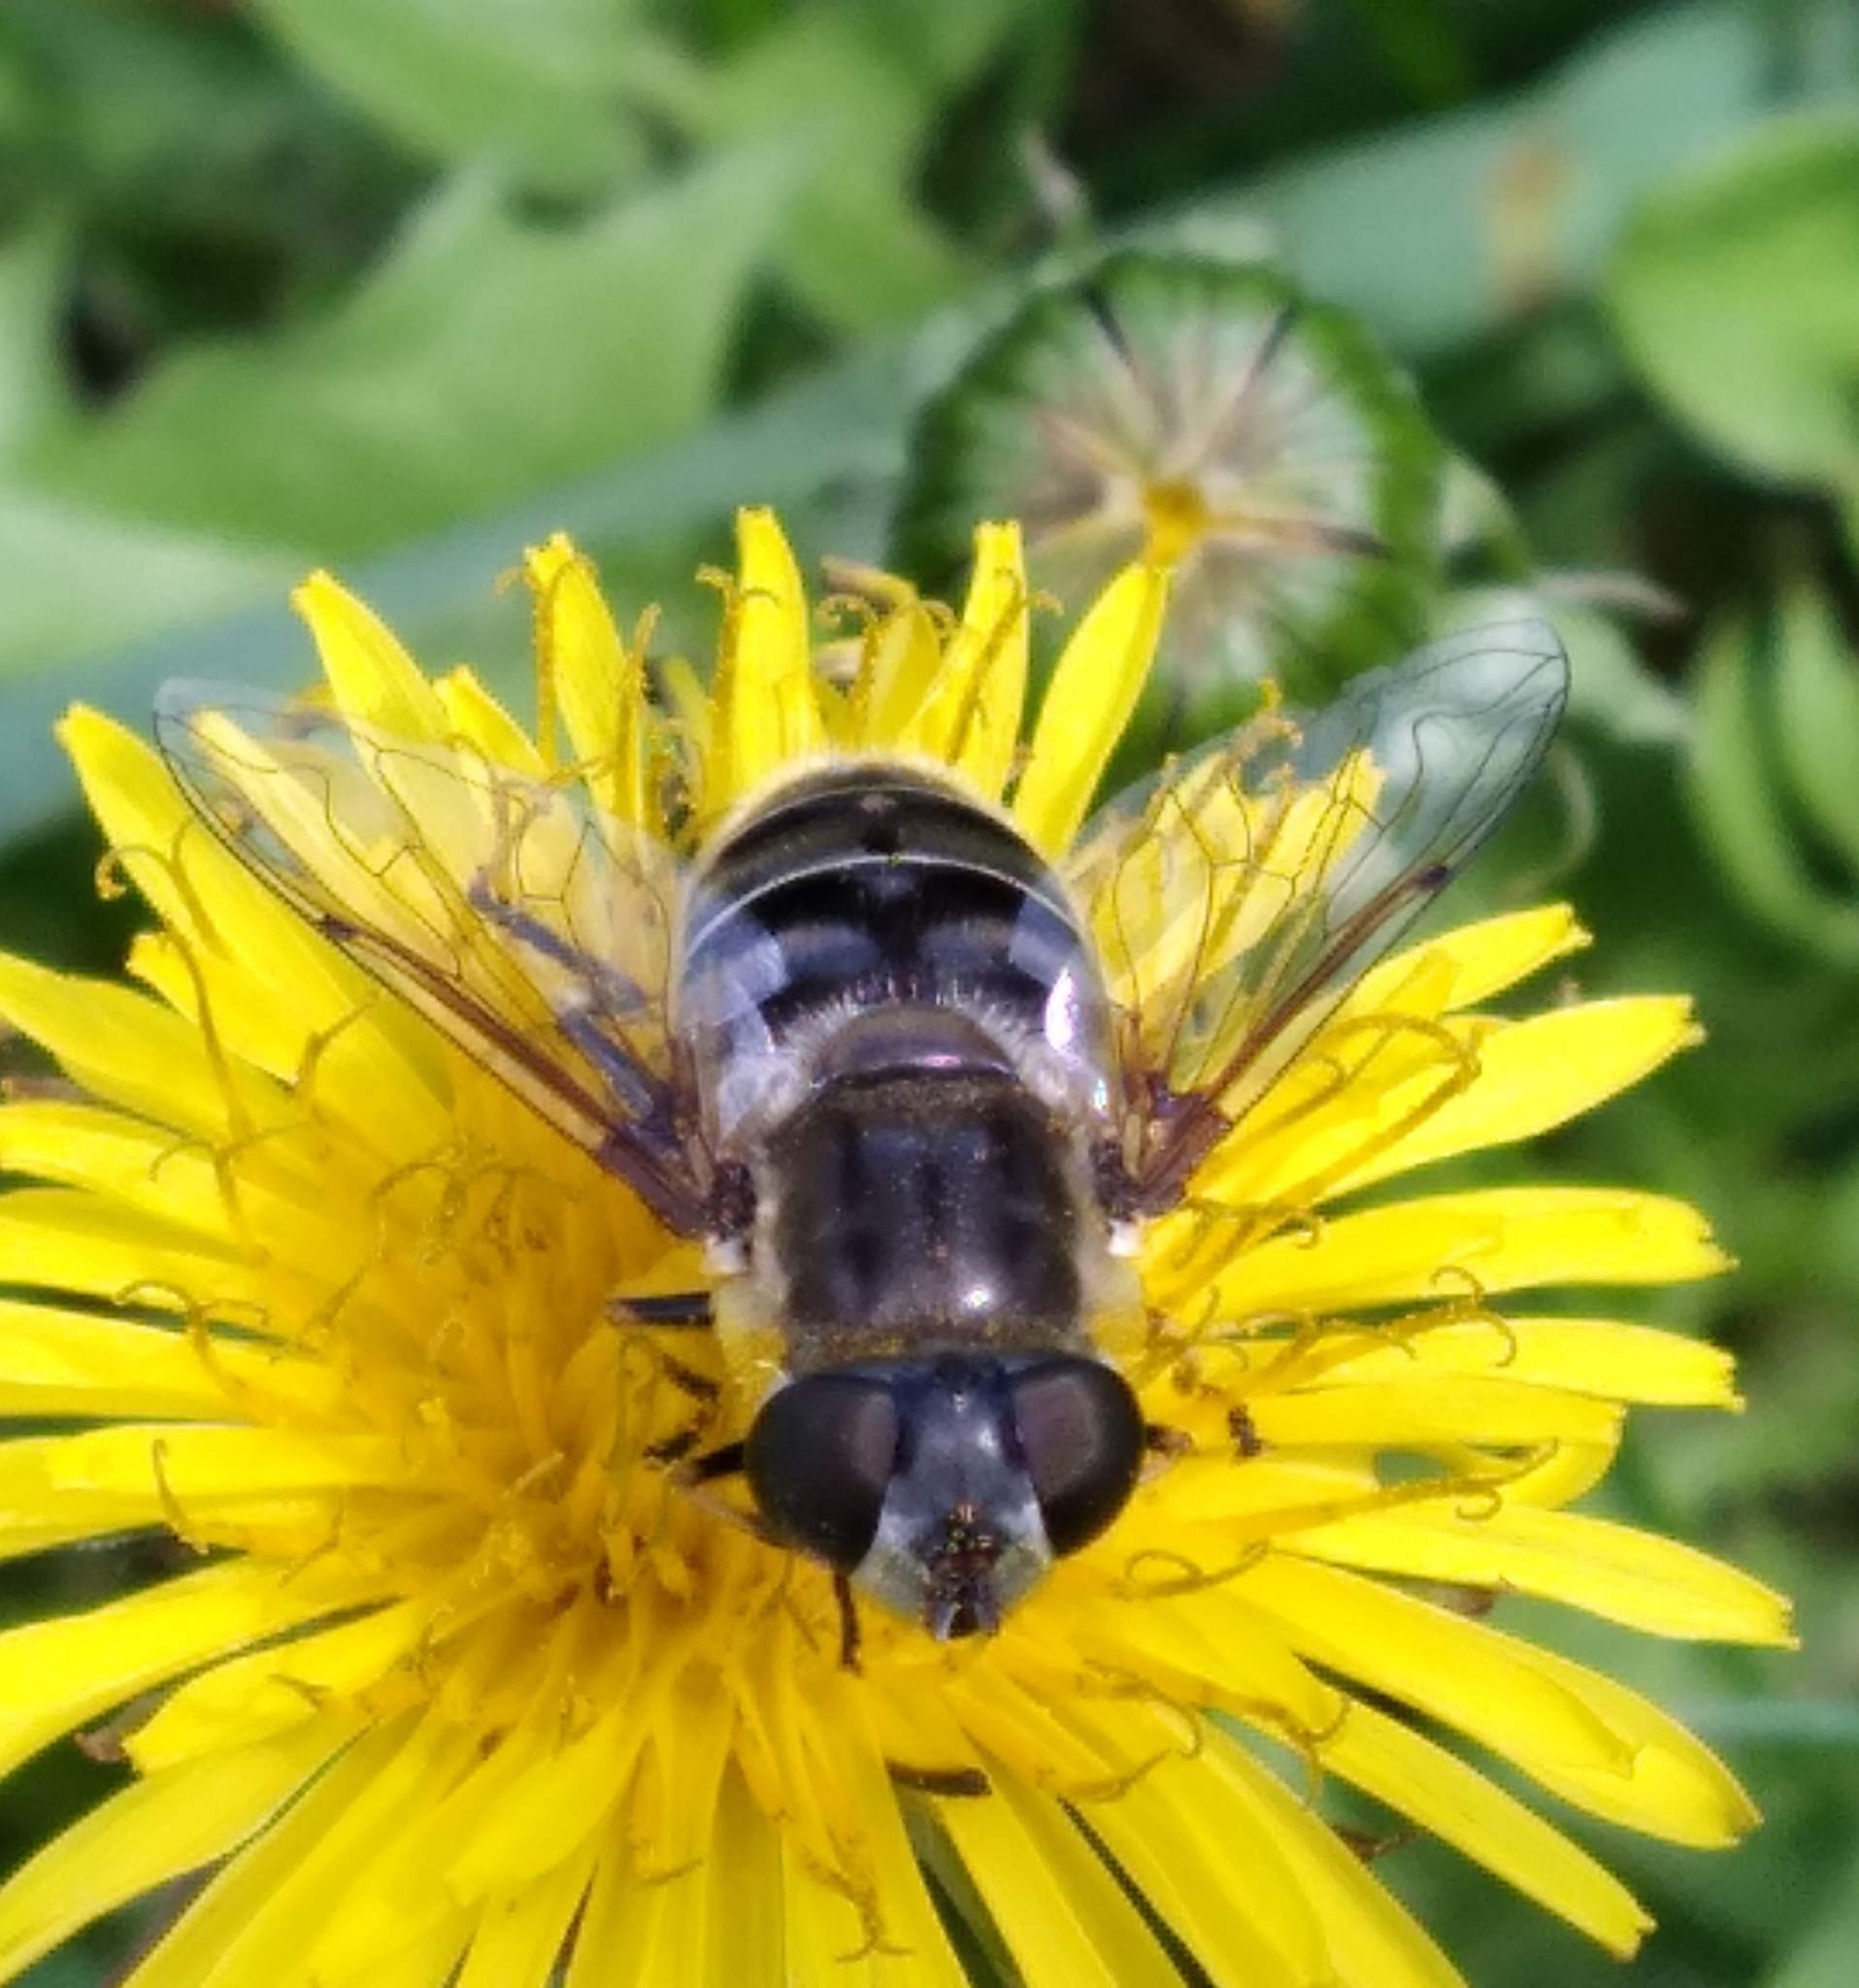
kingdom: Animalia
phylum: Arthropoda
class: Insecta
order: Diptera
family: Syrphidae
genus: Eristalis
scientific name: Eristalis dimidiata
